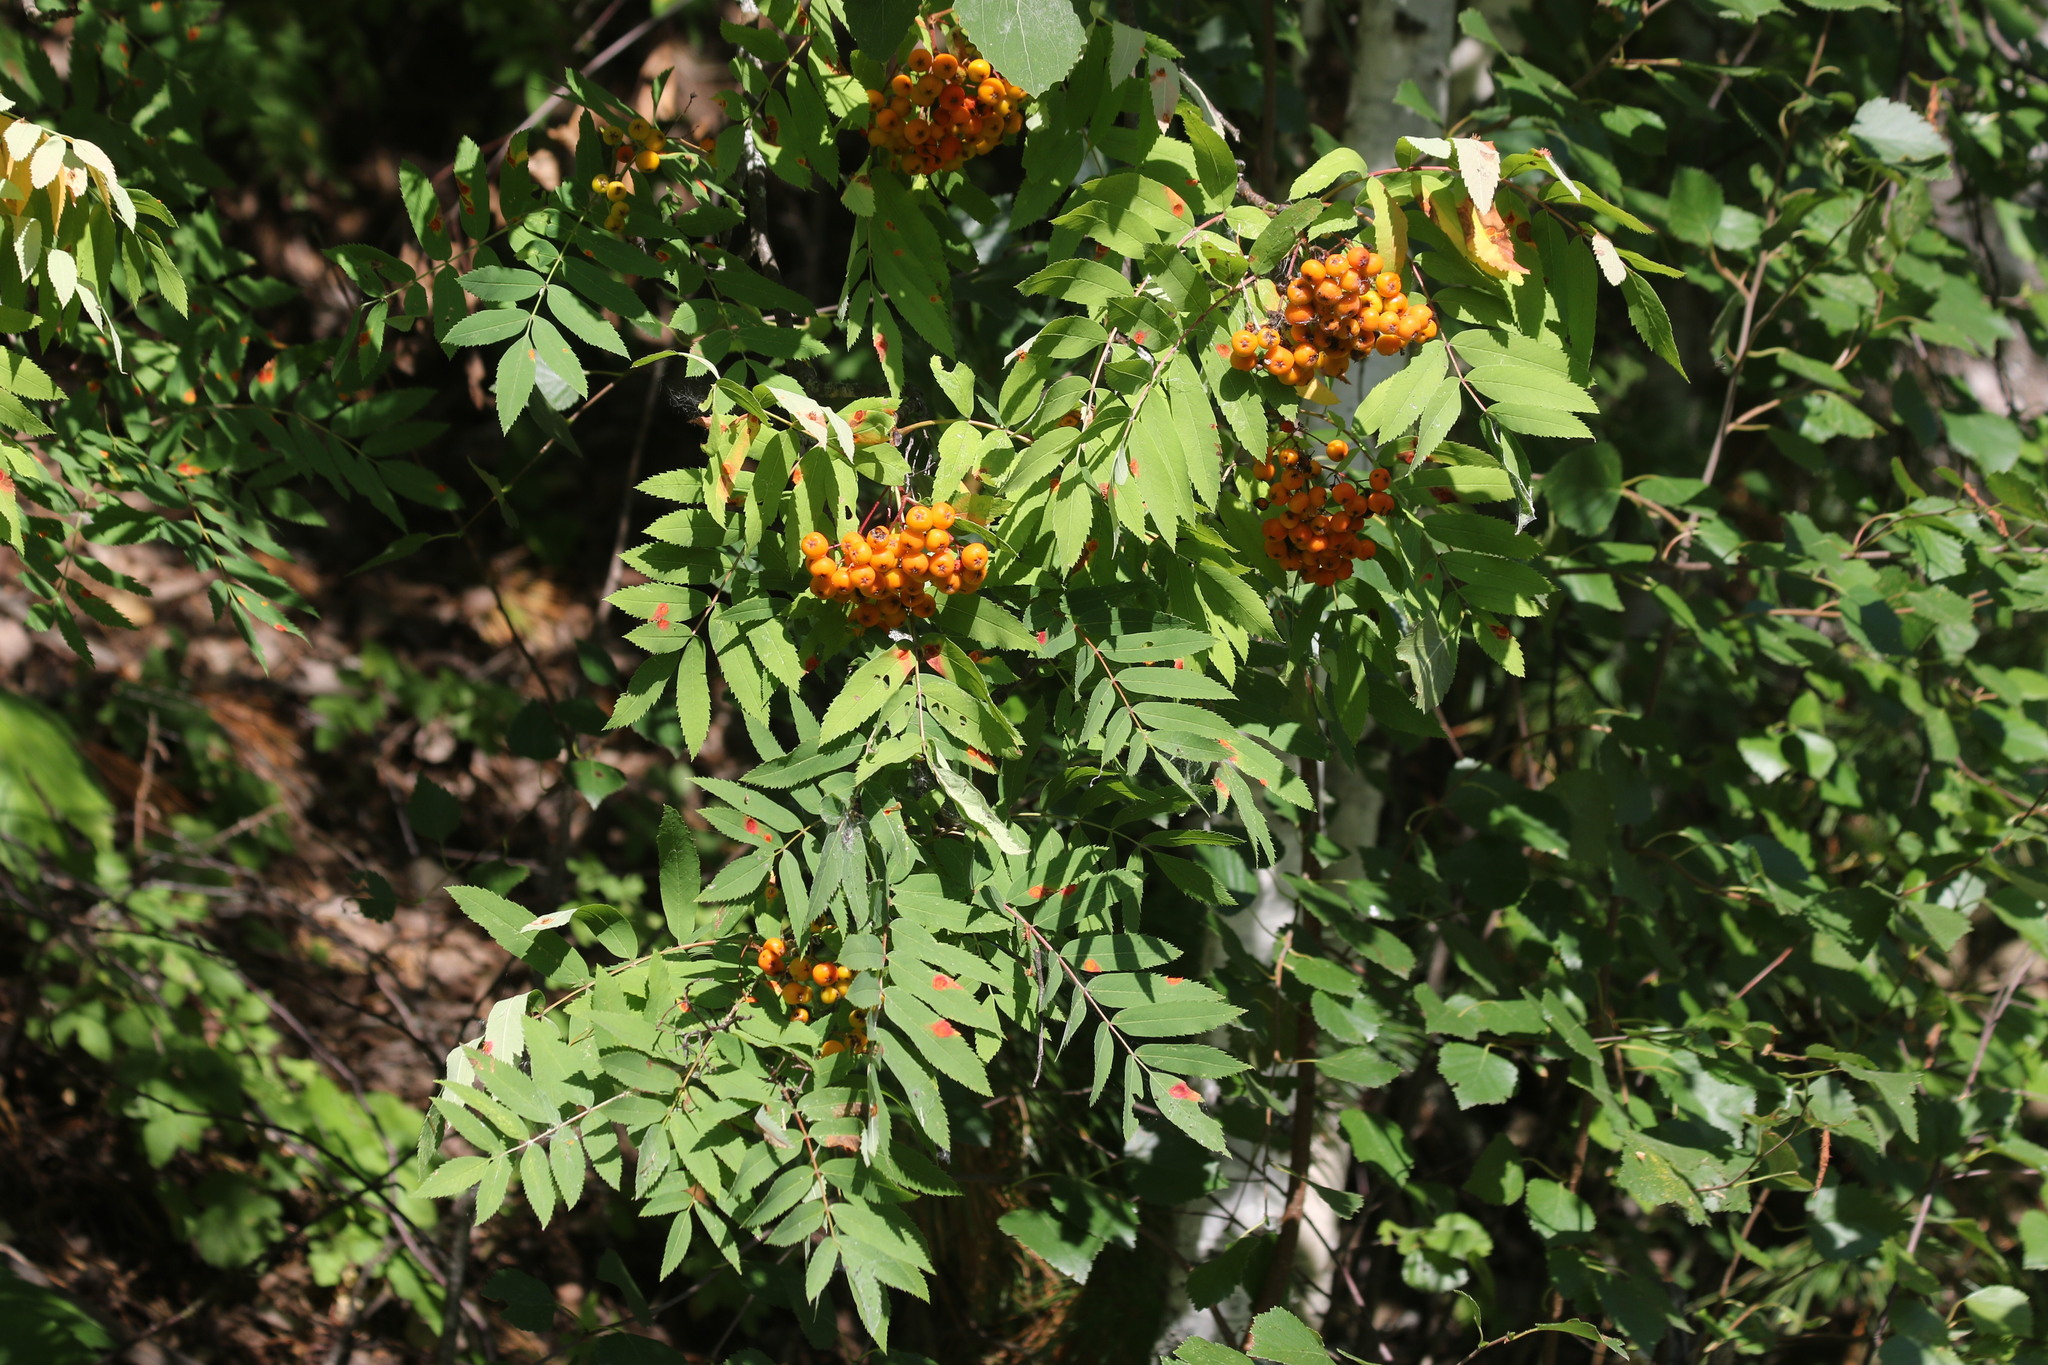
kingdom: Plantae
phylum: Tracheophyta
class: Magnoliopsida
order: Rosales
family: Rosaceae
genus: Sorbus
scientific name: Sorbus aucuparia
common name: Rowan
